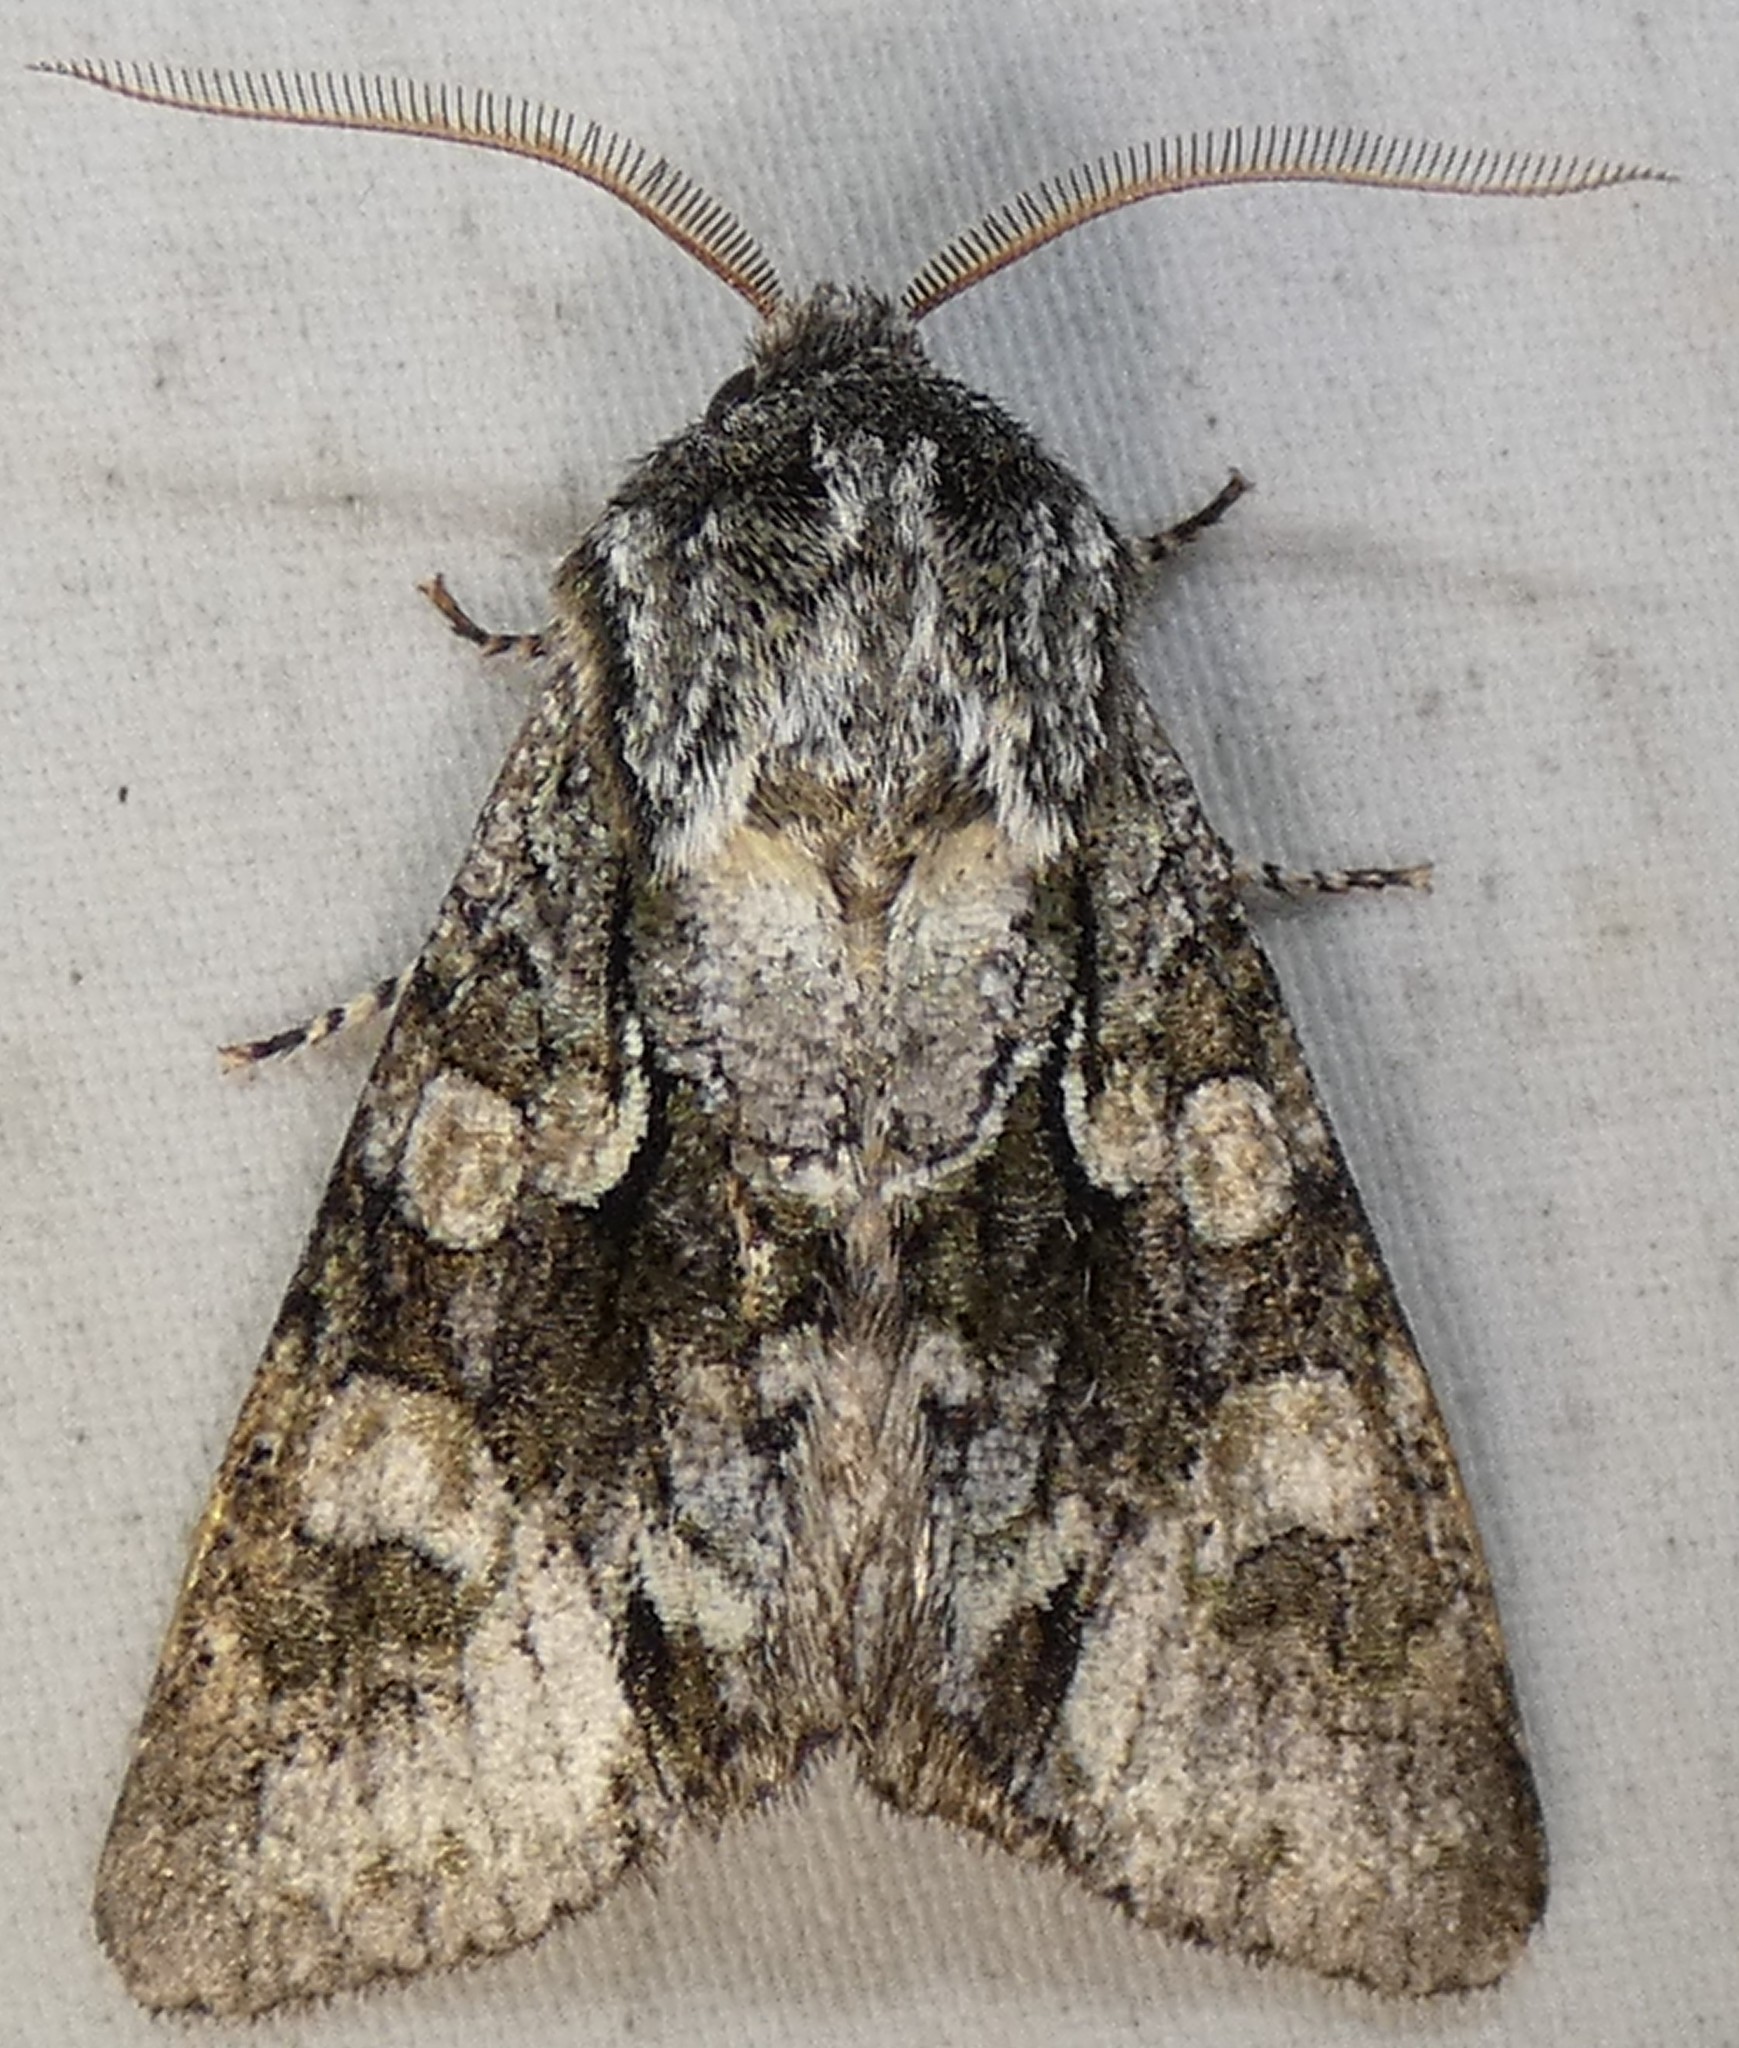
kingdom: Animalia
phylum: Arthropoda
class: Insecta
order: Lepidoptera
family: Noctuidae
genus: Psaphida
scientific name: Psaphida resumens
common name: Figure-eight sallow
